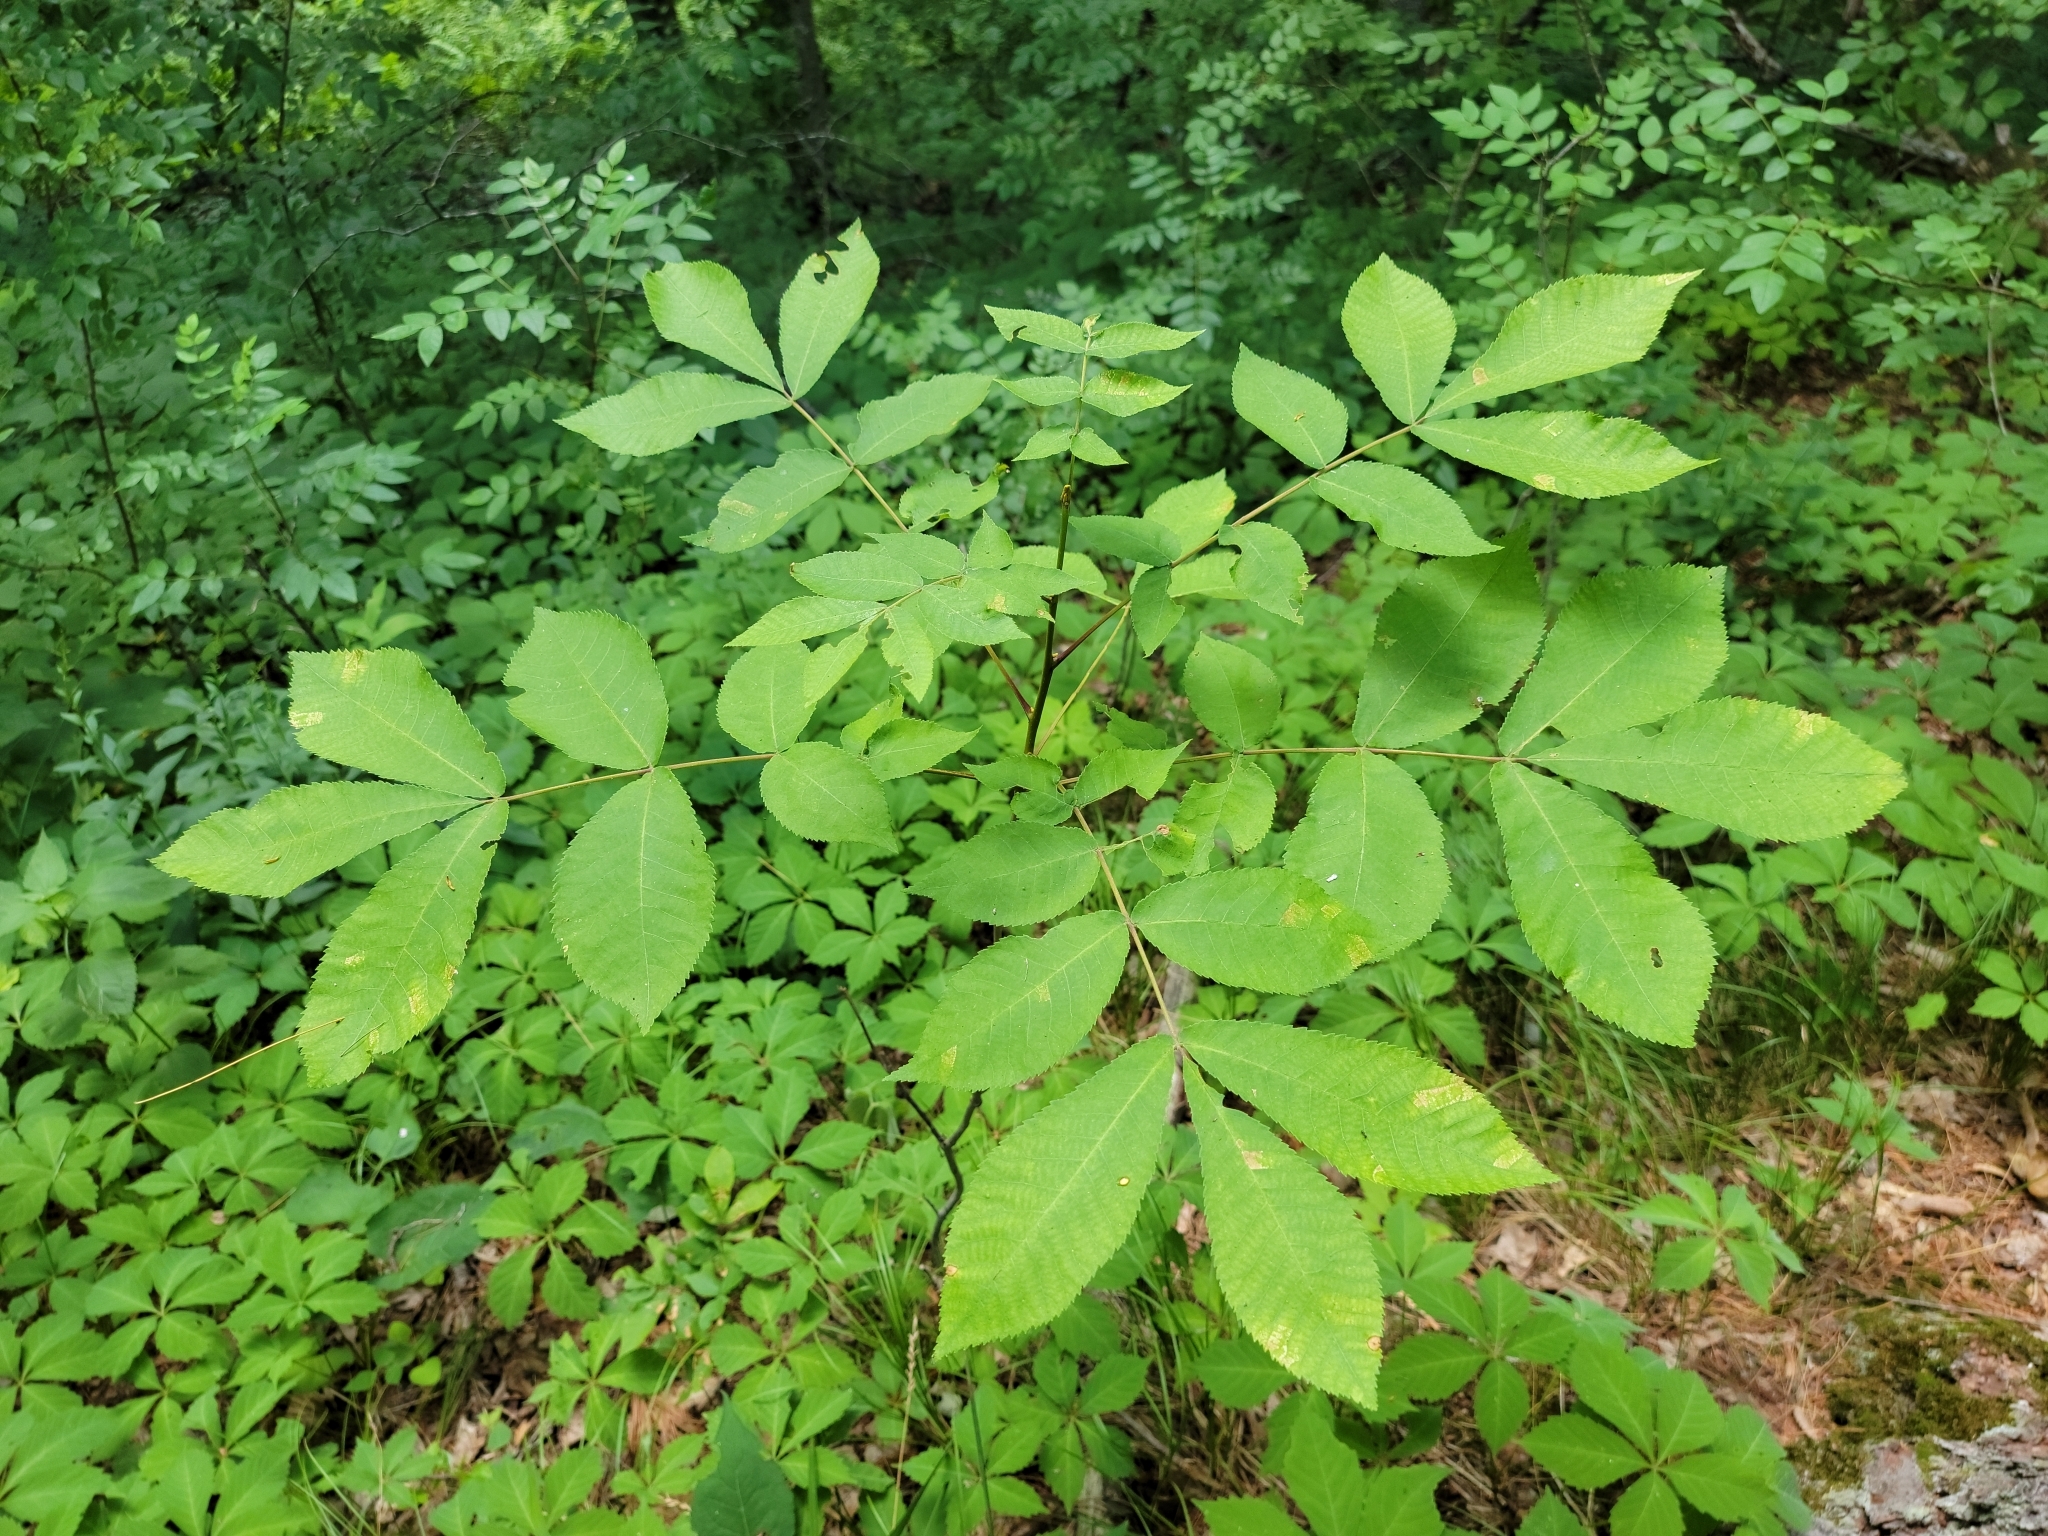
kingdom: Plantae
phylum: Tracheophyta
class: Magnoliopsida
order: Fagales
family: Juglandaceae
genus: Carya
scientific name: Carya cordiformis
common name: Bitternut hickory
